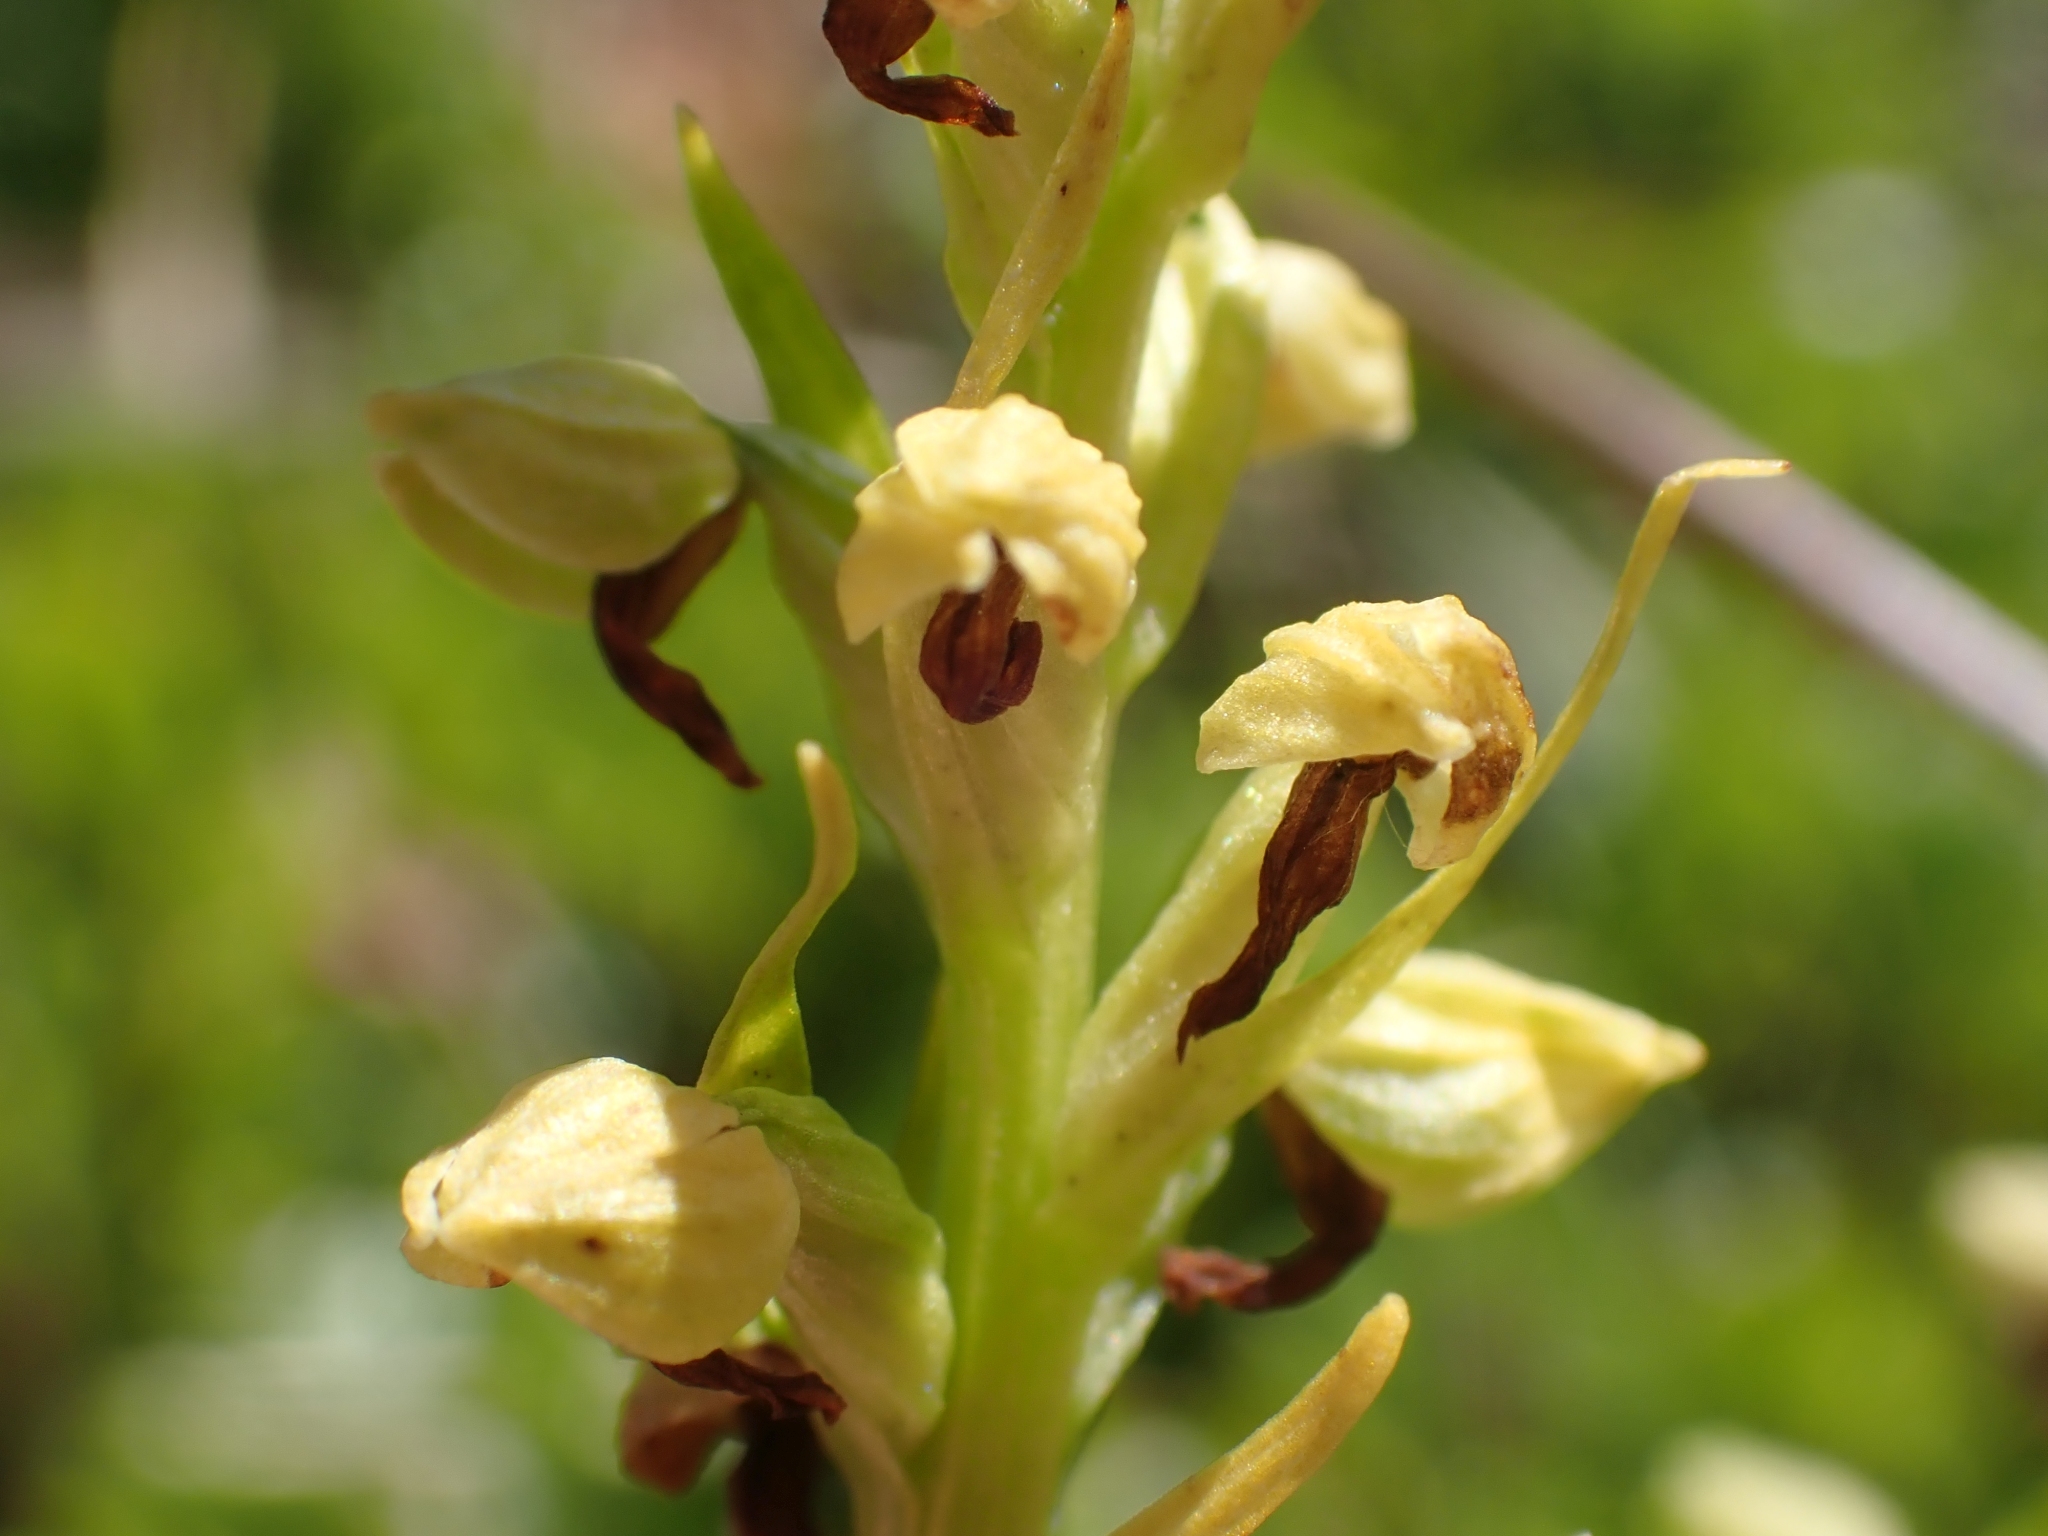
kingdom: Plantae
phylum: Tracheophyta
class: Liliopsida
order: Asparagales
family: Orchidaceae
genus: Dactylorhiza
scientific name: Dactylorhiza viridis
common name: Longbract frog orchid
